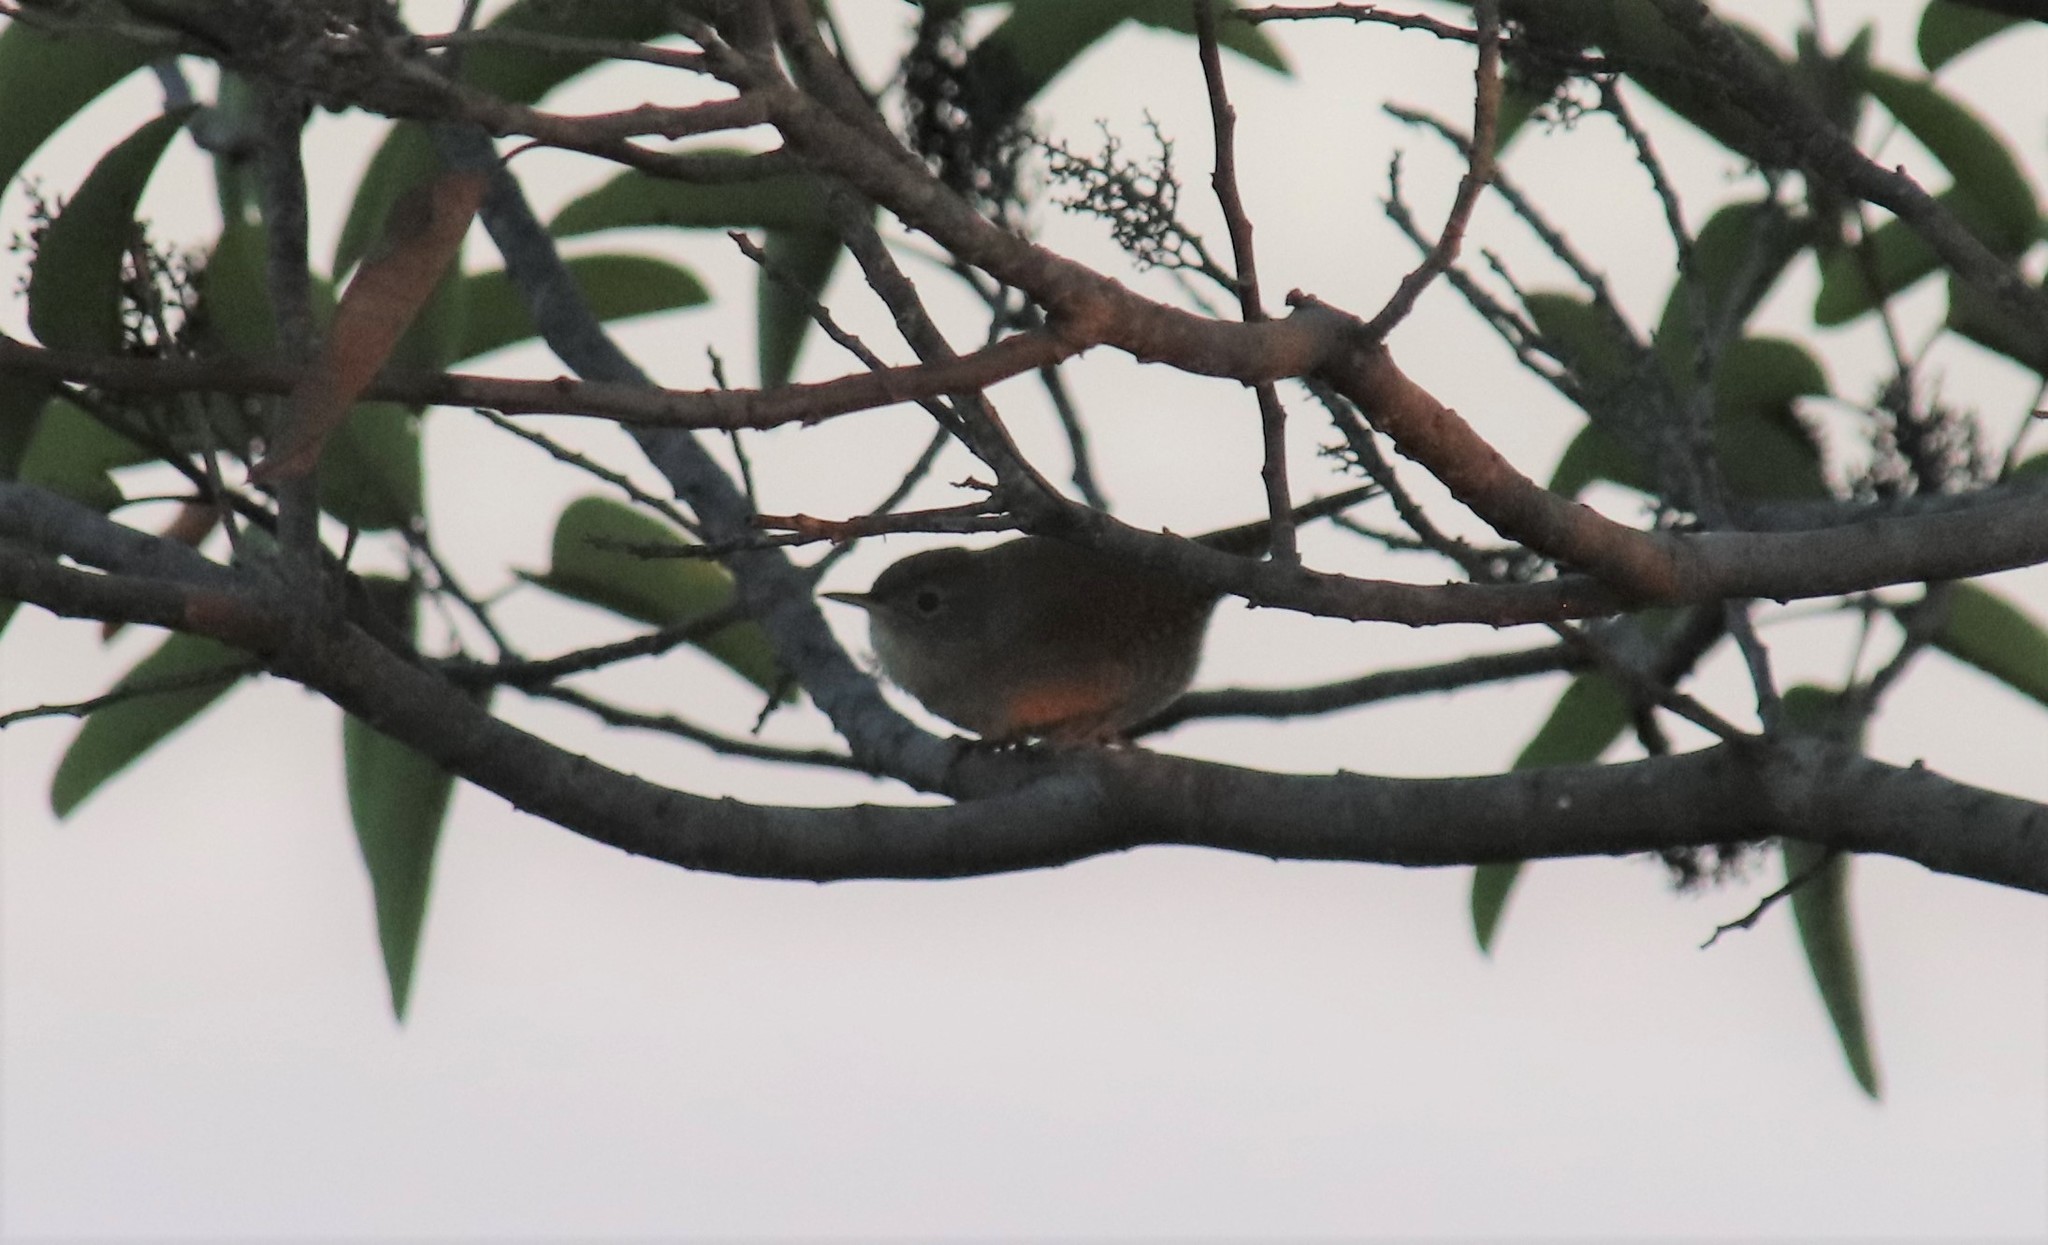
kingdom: Animalia
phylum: Chordata
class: Aves
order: Passeriformes
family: Troglodytidae
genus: Troglodytes
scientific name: Troglodytes aedon
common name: House wren
